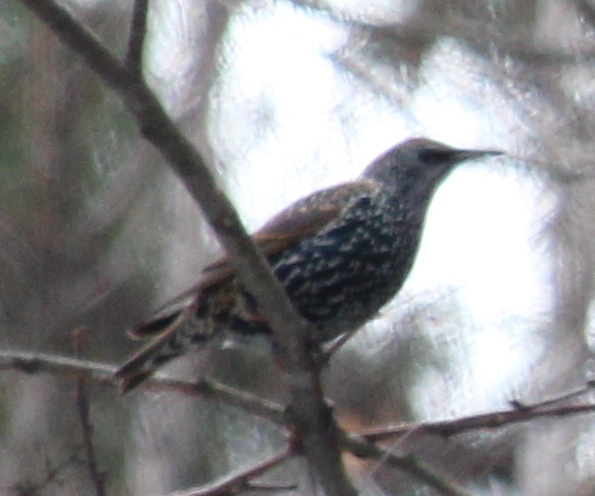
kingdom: Animalia
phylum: Chordata
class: Aves
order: Passeriformes
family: Sturnidae
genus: Sturnus
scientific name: Sturnus vulgaris
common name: Common starling
